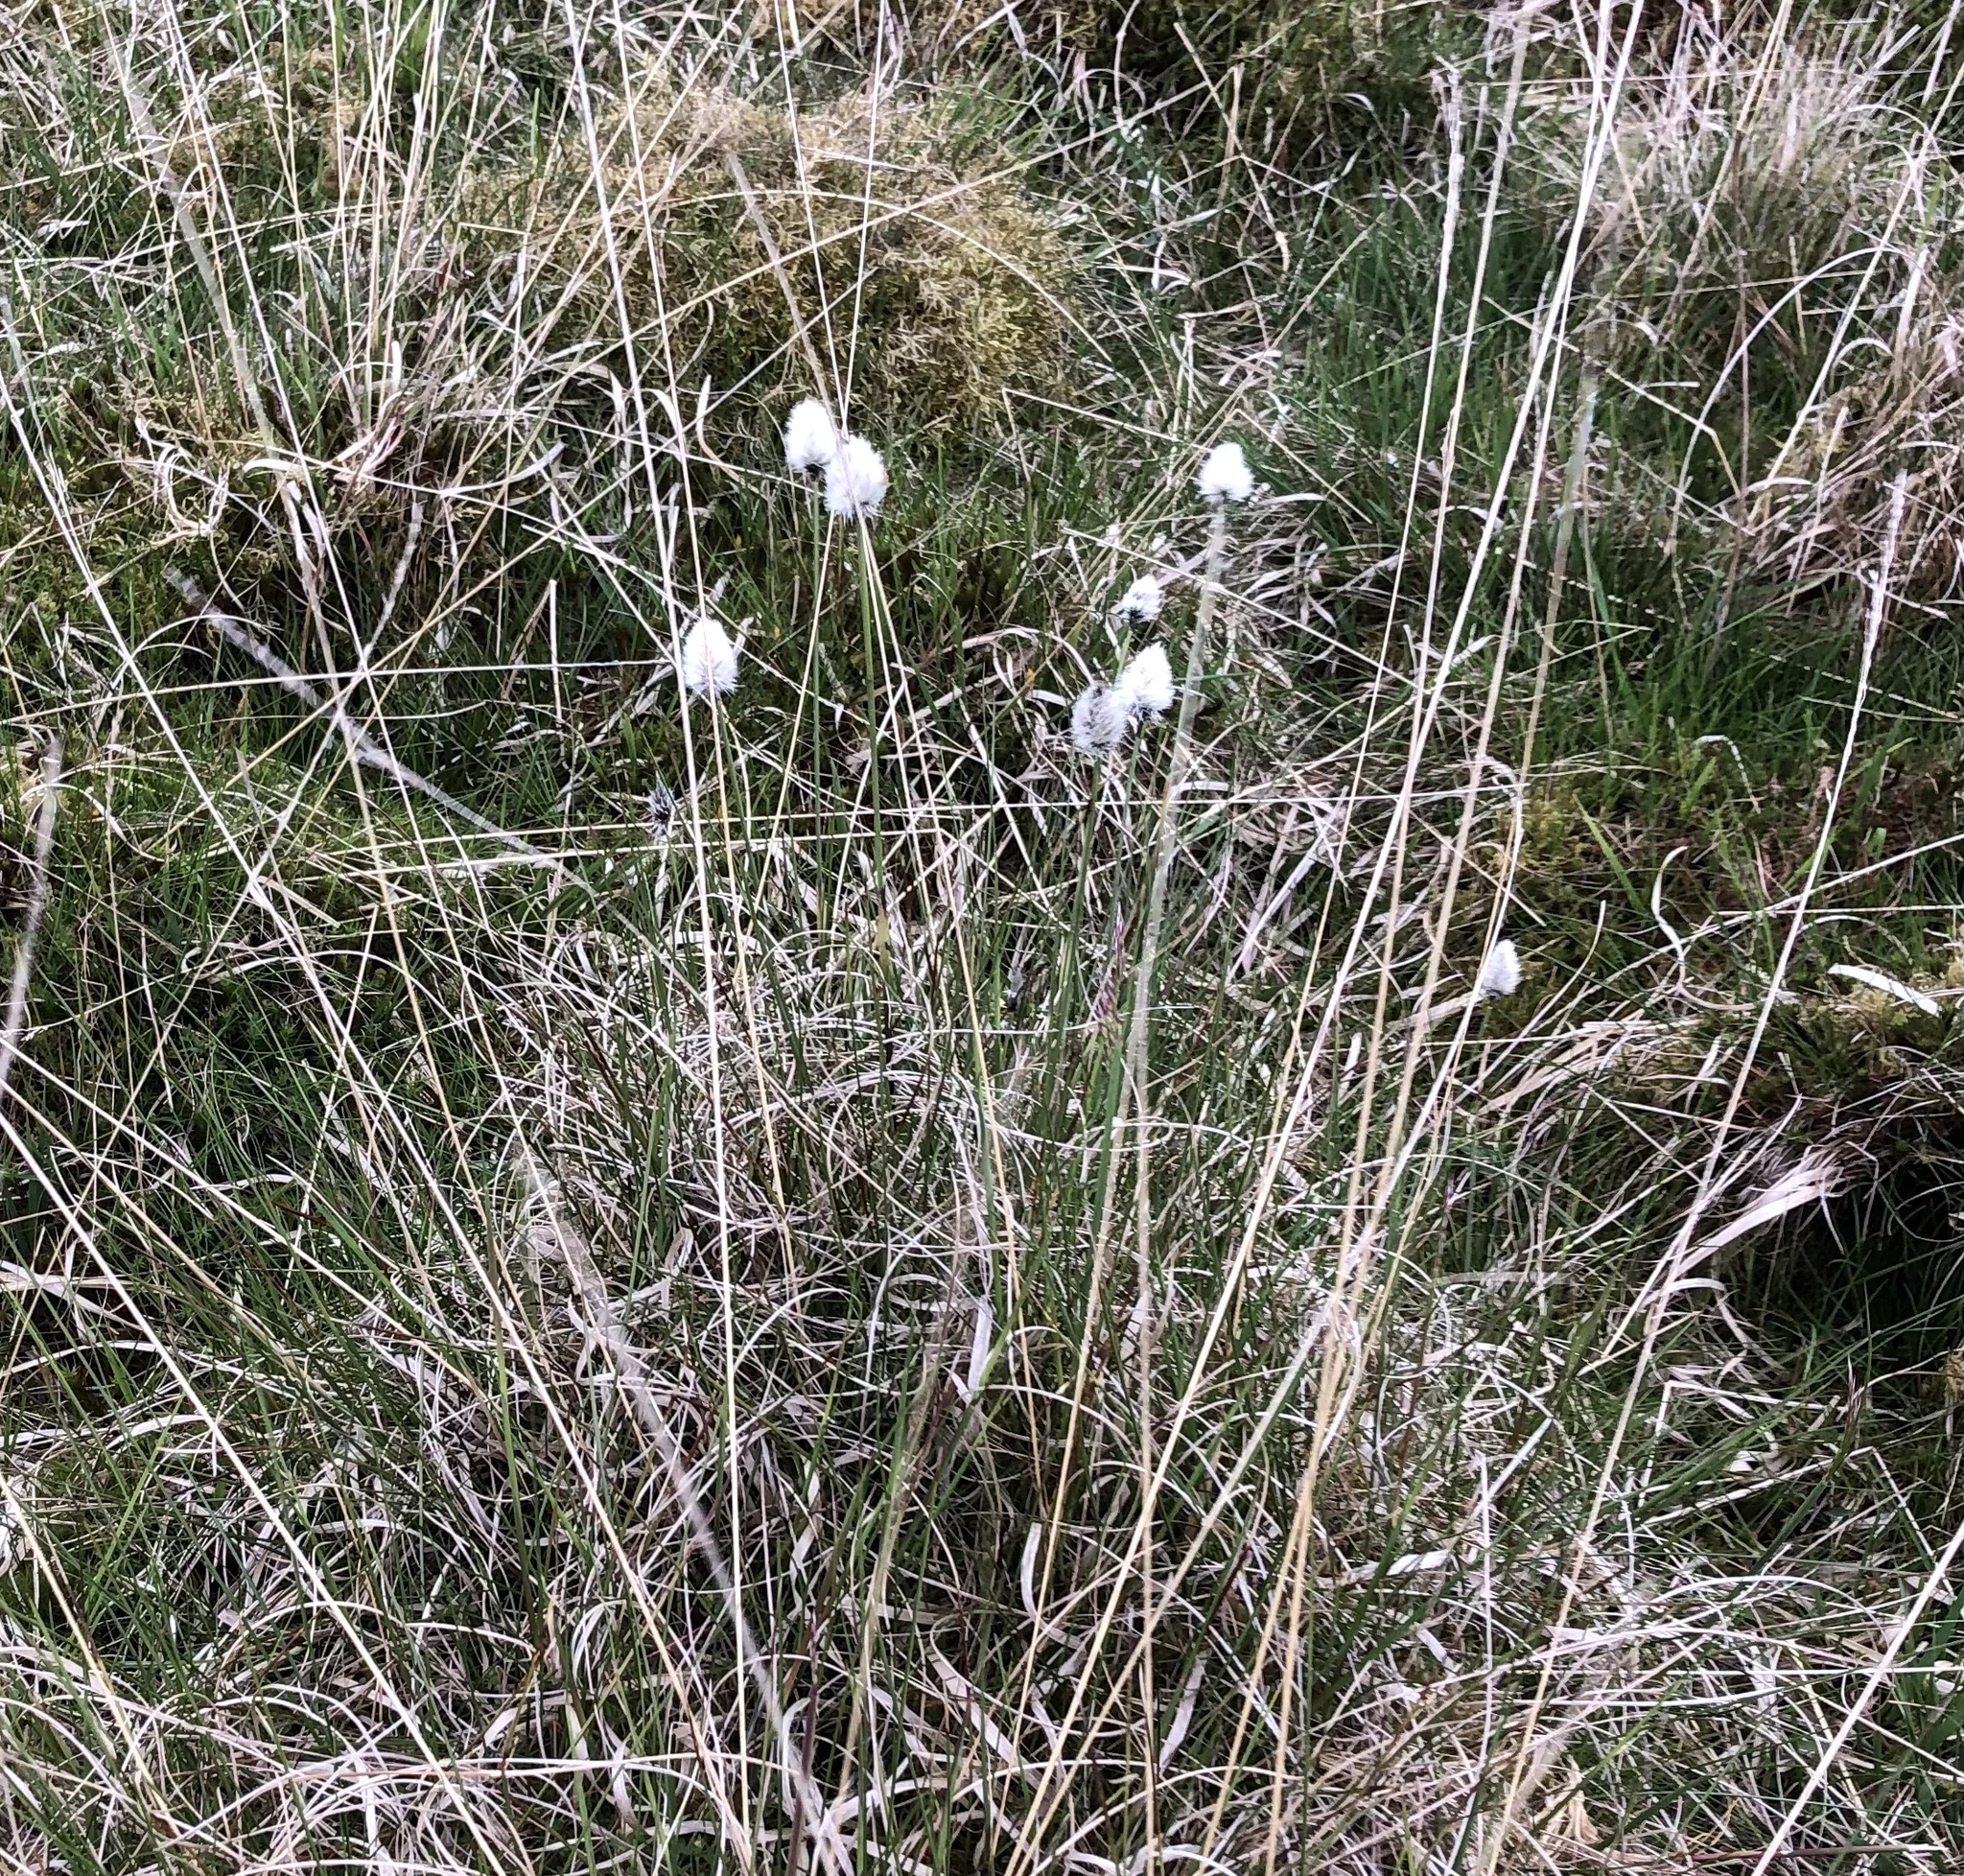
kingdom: Plantae
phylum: Tracheophyta
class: Liliopsida
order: Poales
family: Cyperaceae
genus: Eriophorum
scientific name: Eriophorum vaginatum
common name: Hare's-tail cottongrass
